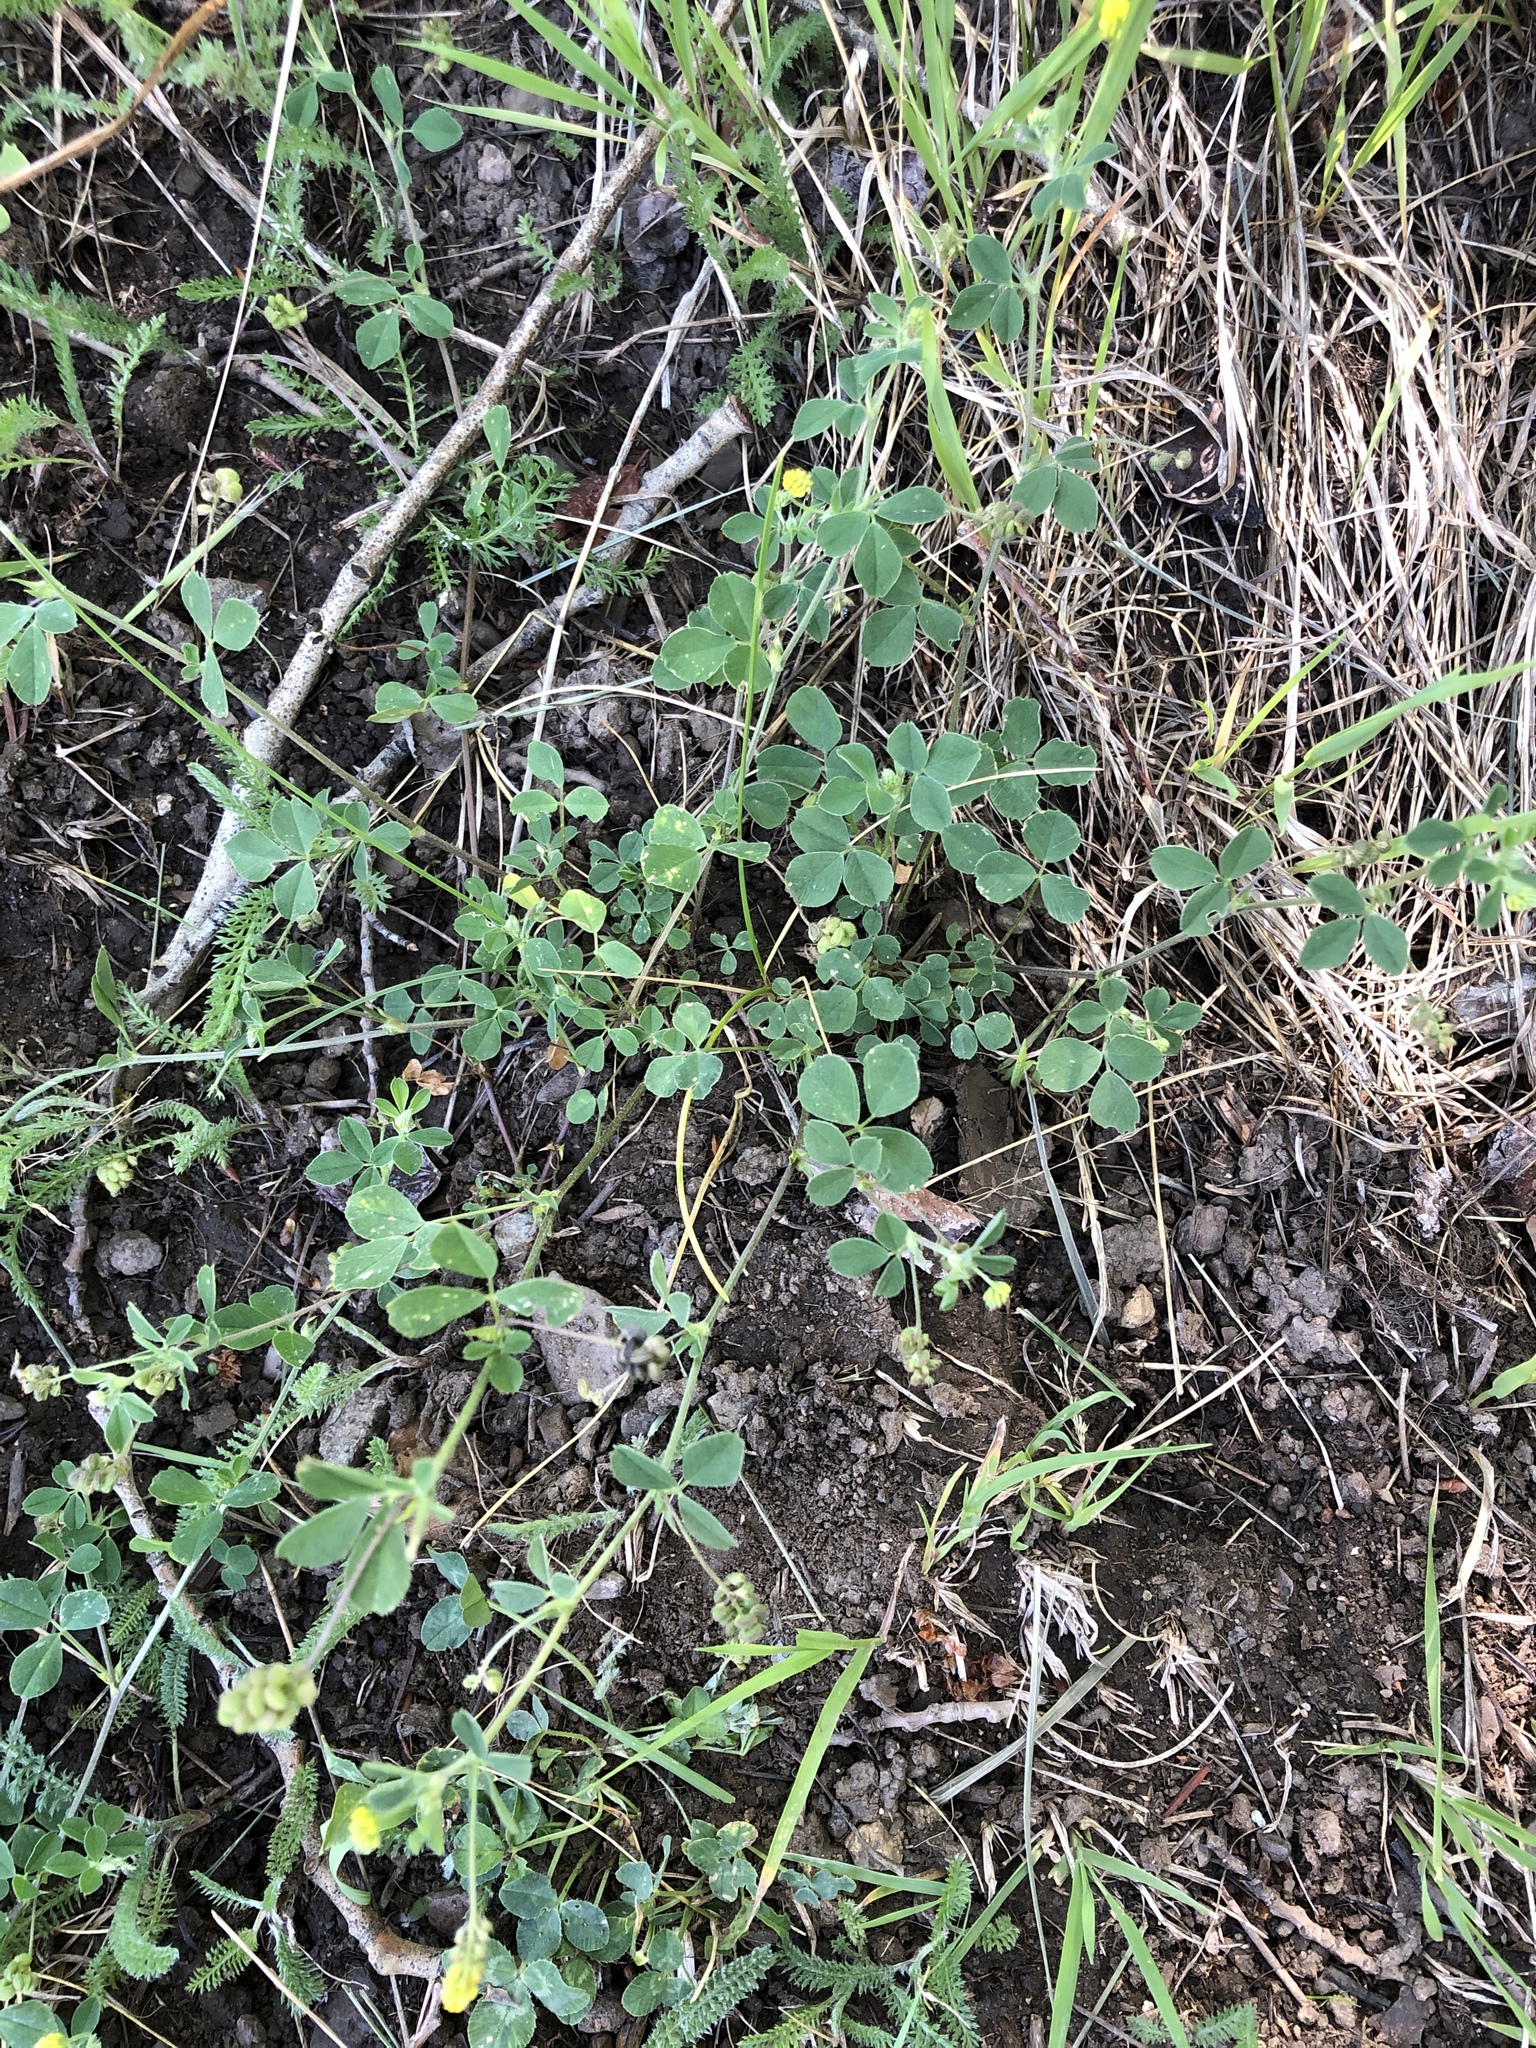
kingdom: Plantae
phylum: Tracheophyta
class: Magnoliopsida
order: Fabales
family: Fabaceae
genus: Medicago
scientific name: Medicago lupulina
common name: Black medick
